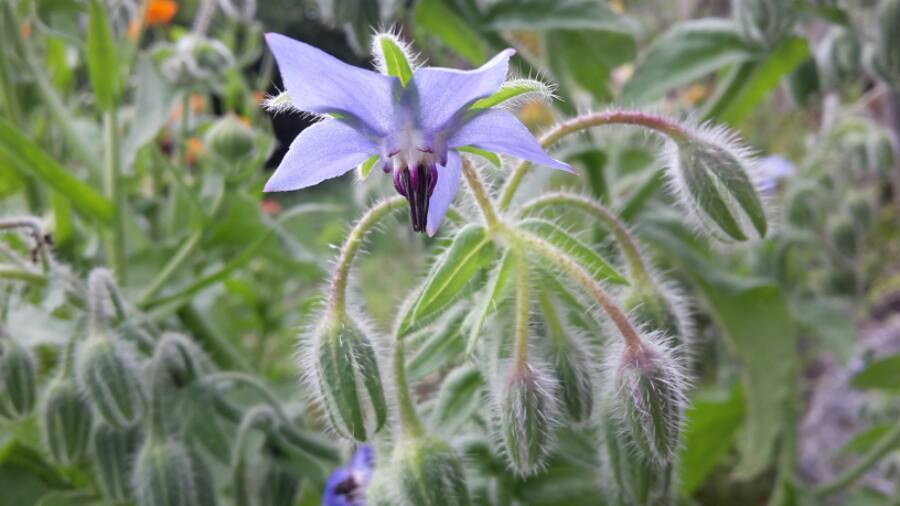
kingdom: Plantae
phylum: Tracheophyta
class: Magnoliopsida
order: Boraginales
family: Boraginaceae
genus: Borago
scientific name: Borago officinalis
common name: Borage
